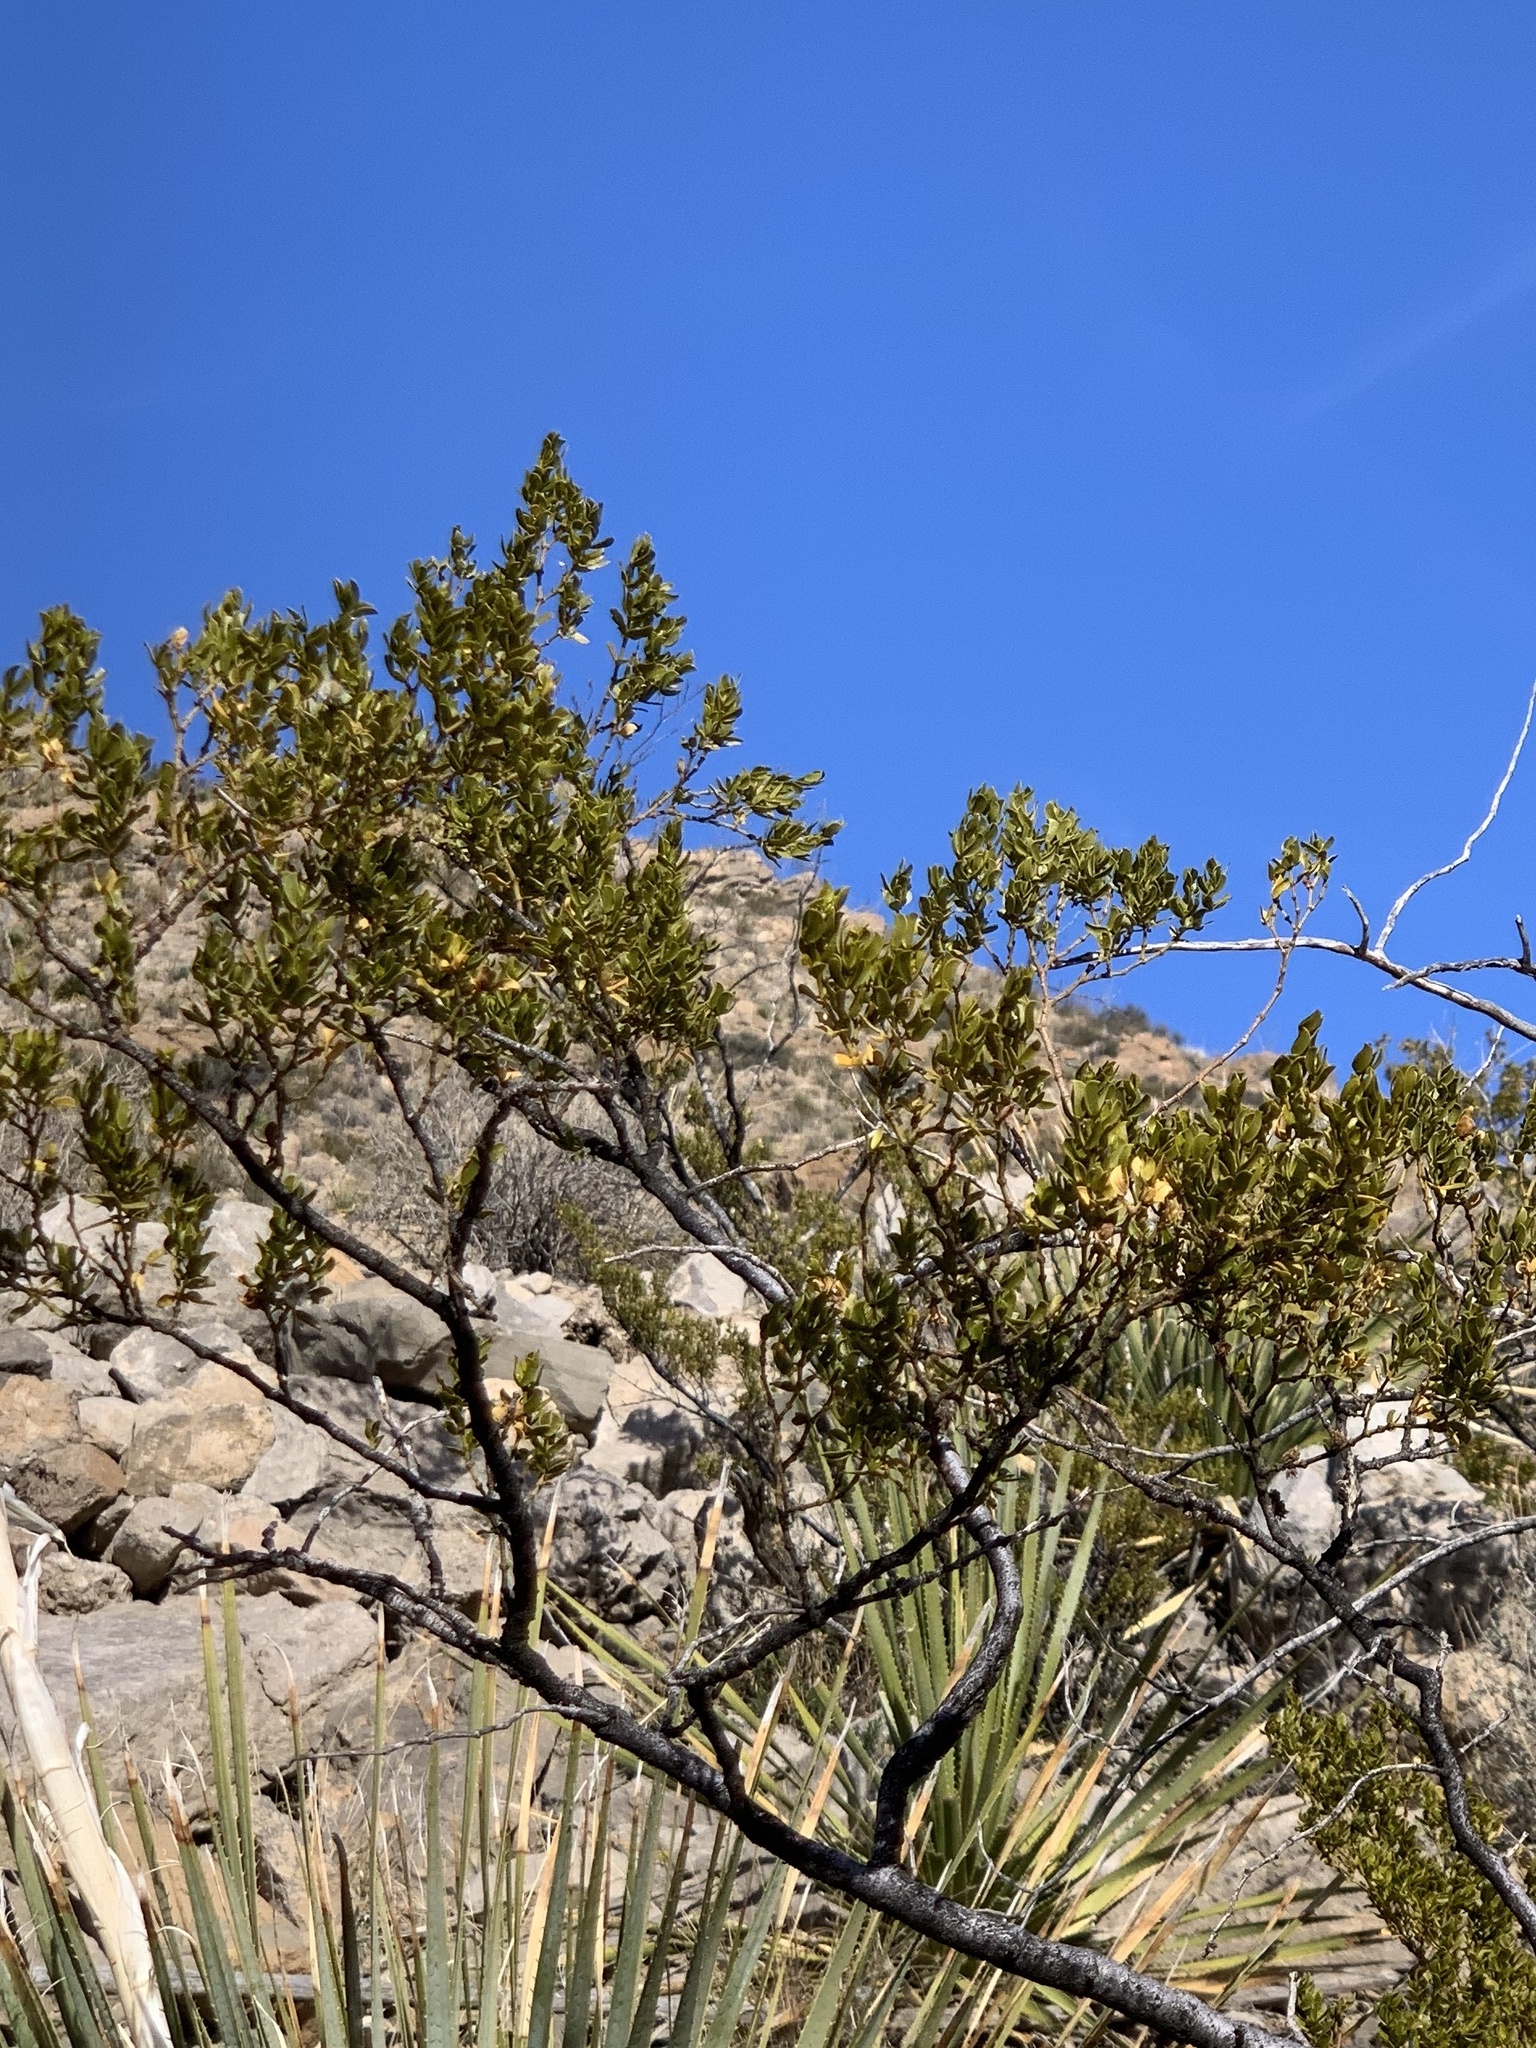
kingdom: Plantae
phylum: Tracheophyta
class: Magnoliopsida
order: Zygophyllales
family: Zygophyllaceae
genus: Larrea
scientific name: Larrea tridentata
